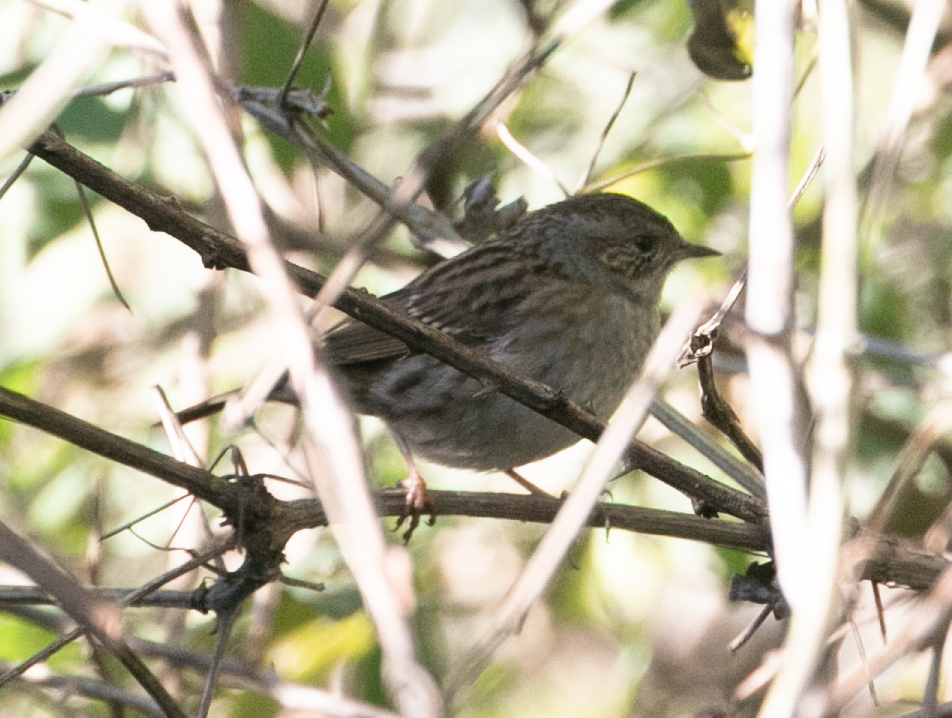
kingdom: Animalia
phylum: Chordata
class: Aves
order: Passeriformes
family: Prunellidae
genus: Prunella
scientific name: Prunella modularis
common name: Dunnock
